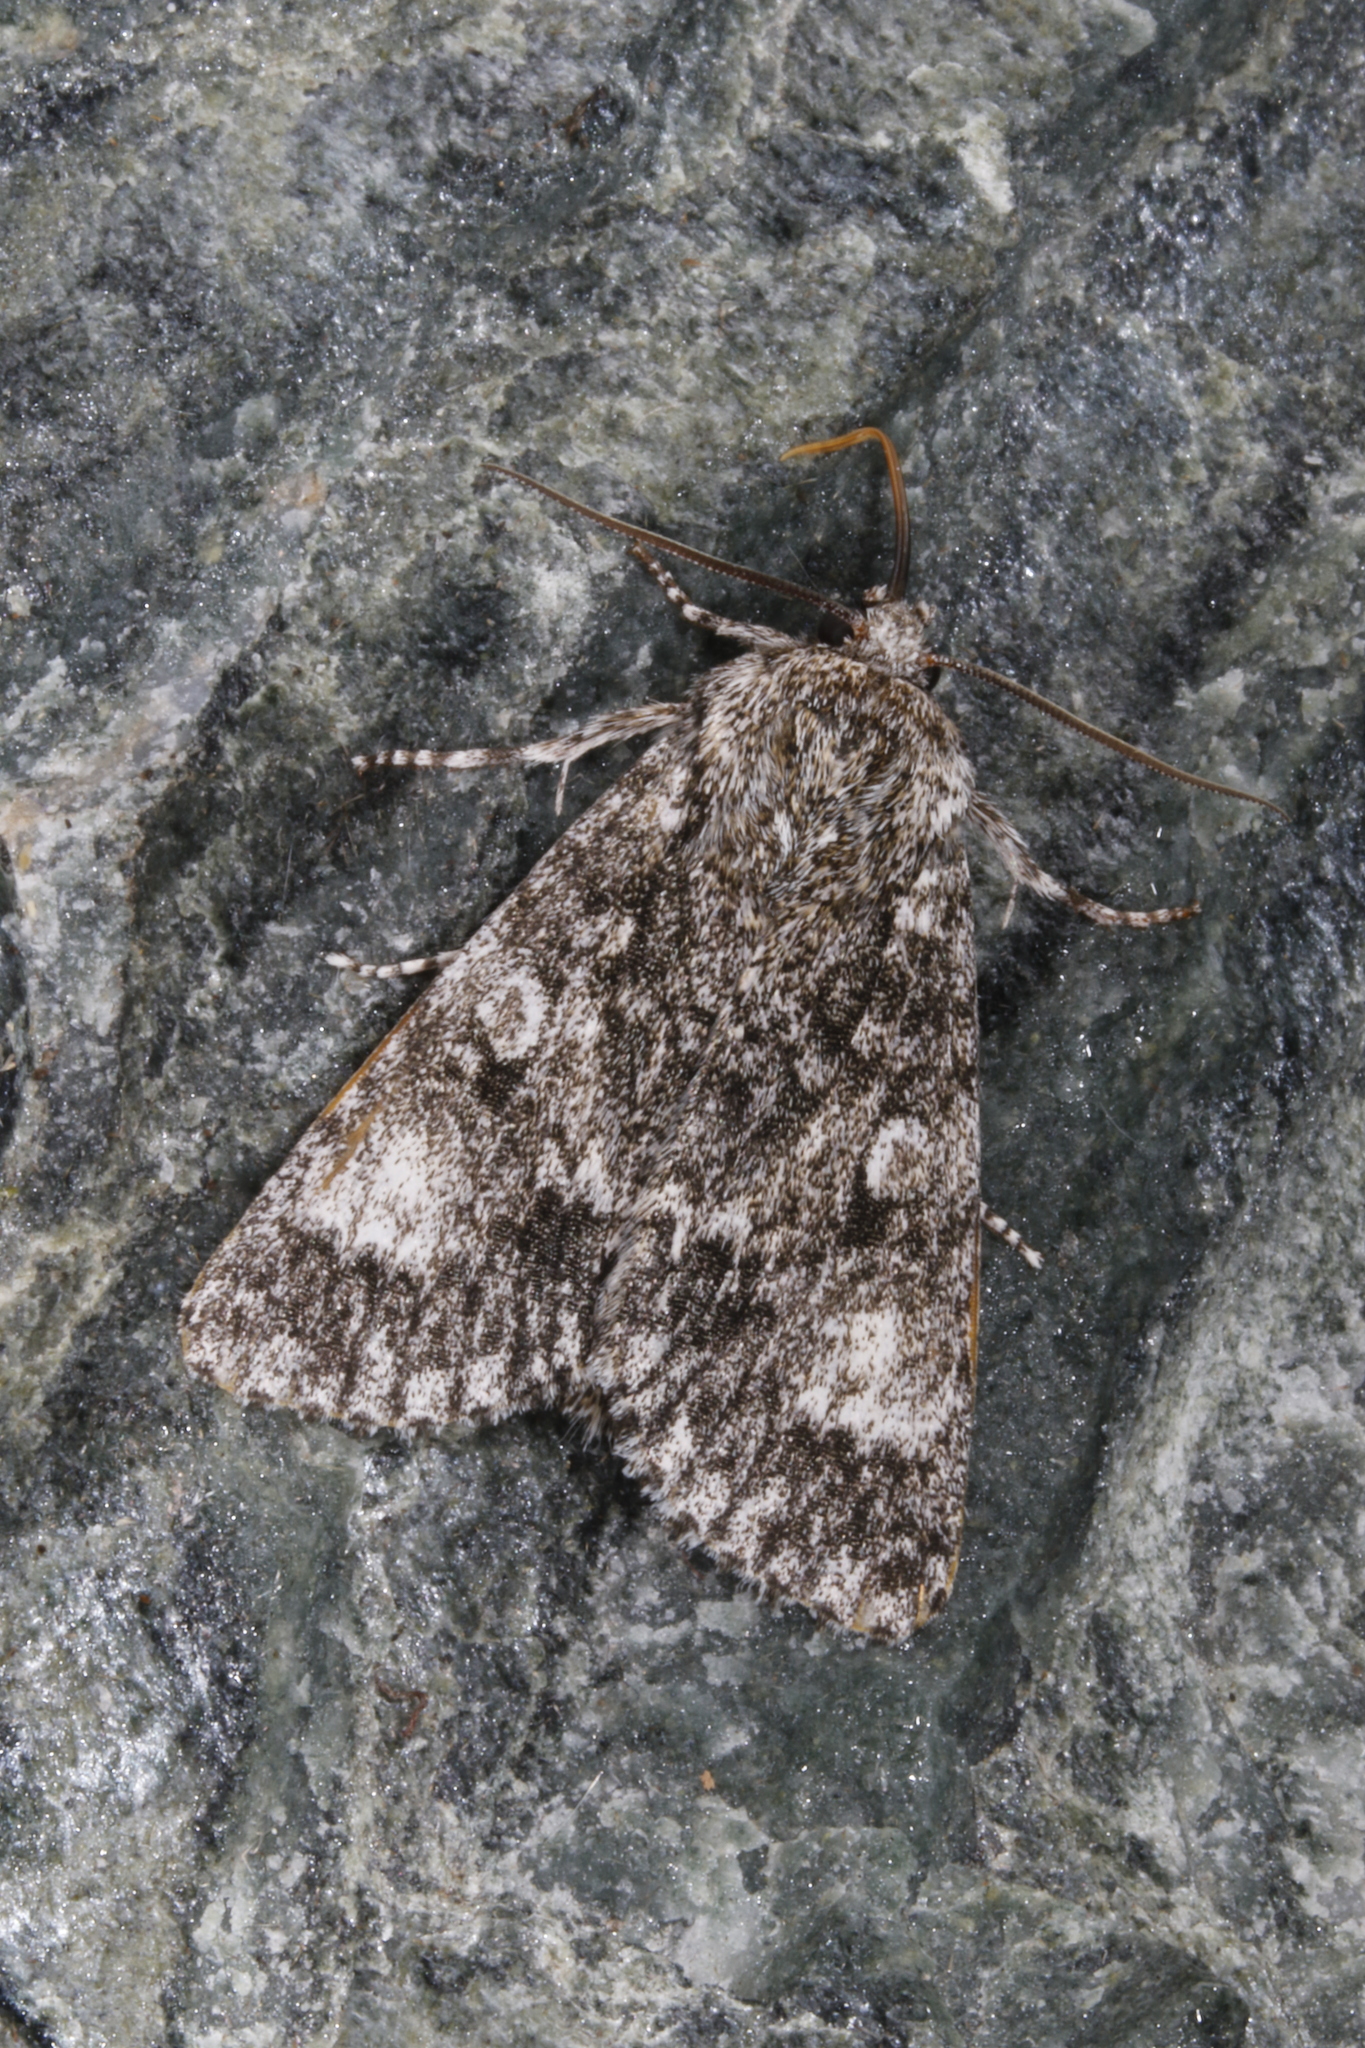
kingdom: Animalia
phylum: Arthropoda
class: Insecta
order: Lepidoptera
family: Noctuidae
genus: Acronicta
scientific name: Acronicta megacephala
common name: Poplar grey
